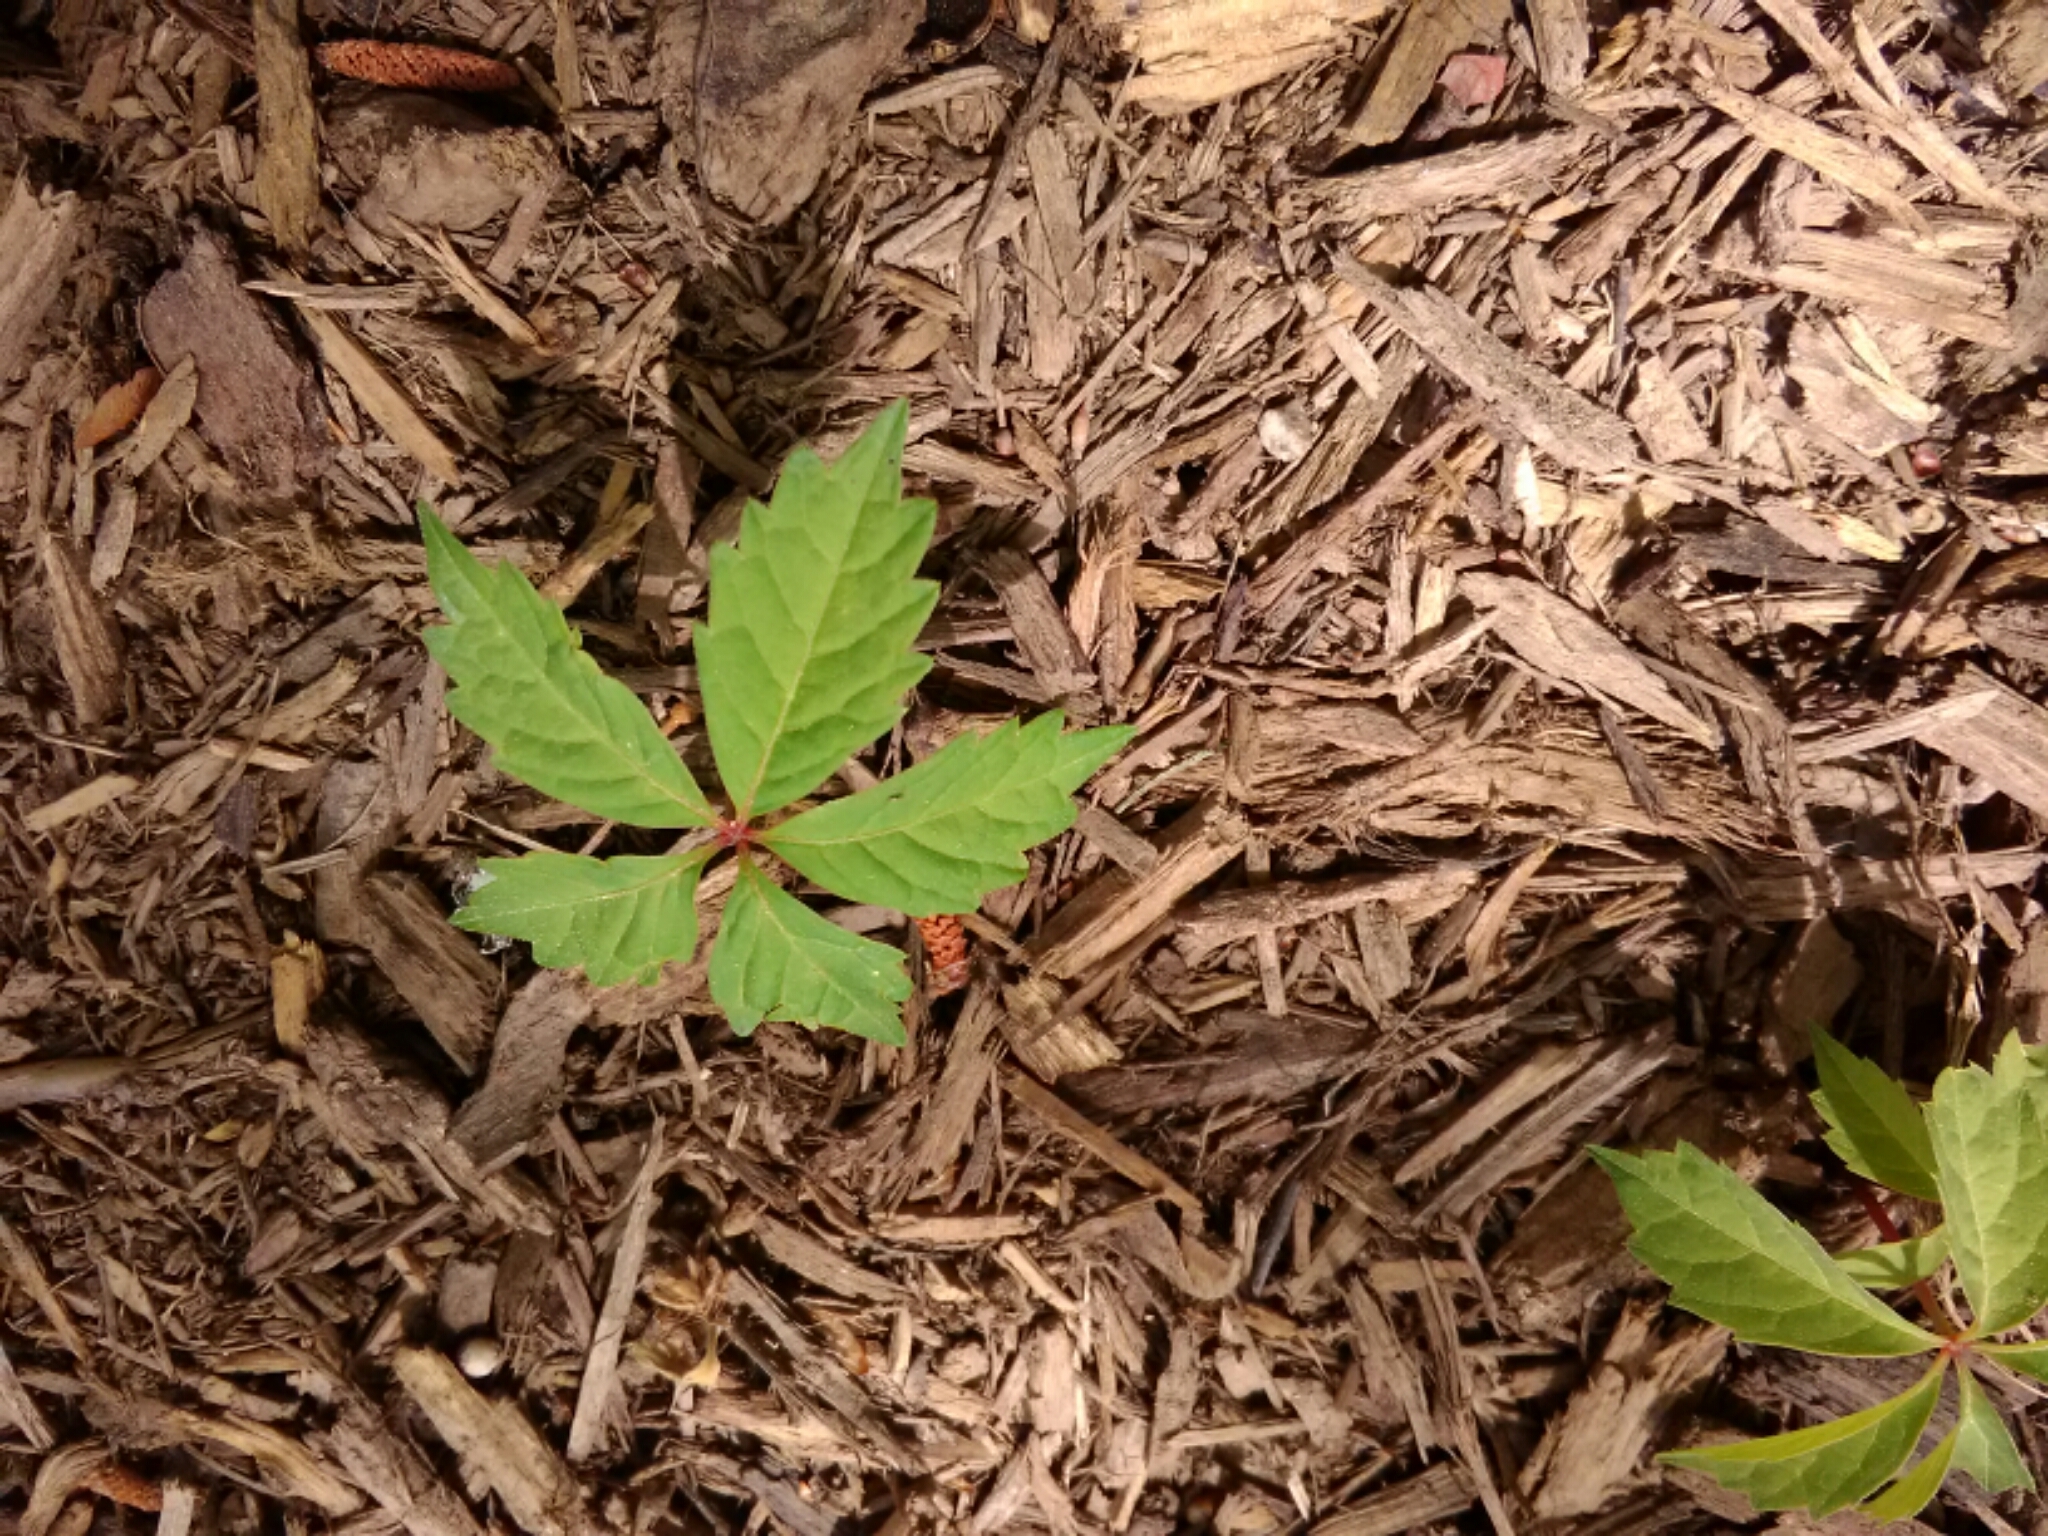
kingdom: Plantae
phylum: Tracheophyta
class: Magnoliopsida
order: Vitales
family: Vitaceae
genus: Parthenocissus
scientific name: Parthenocissus quinquefolia
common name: Virginia-creeper
